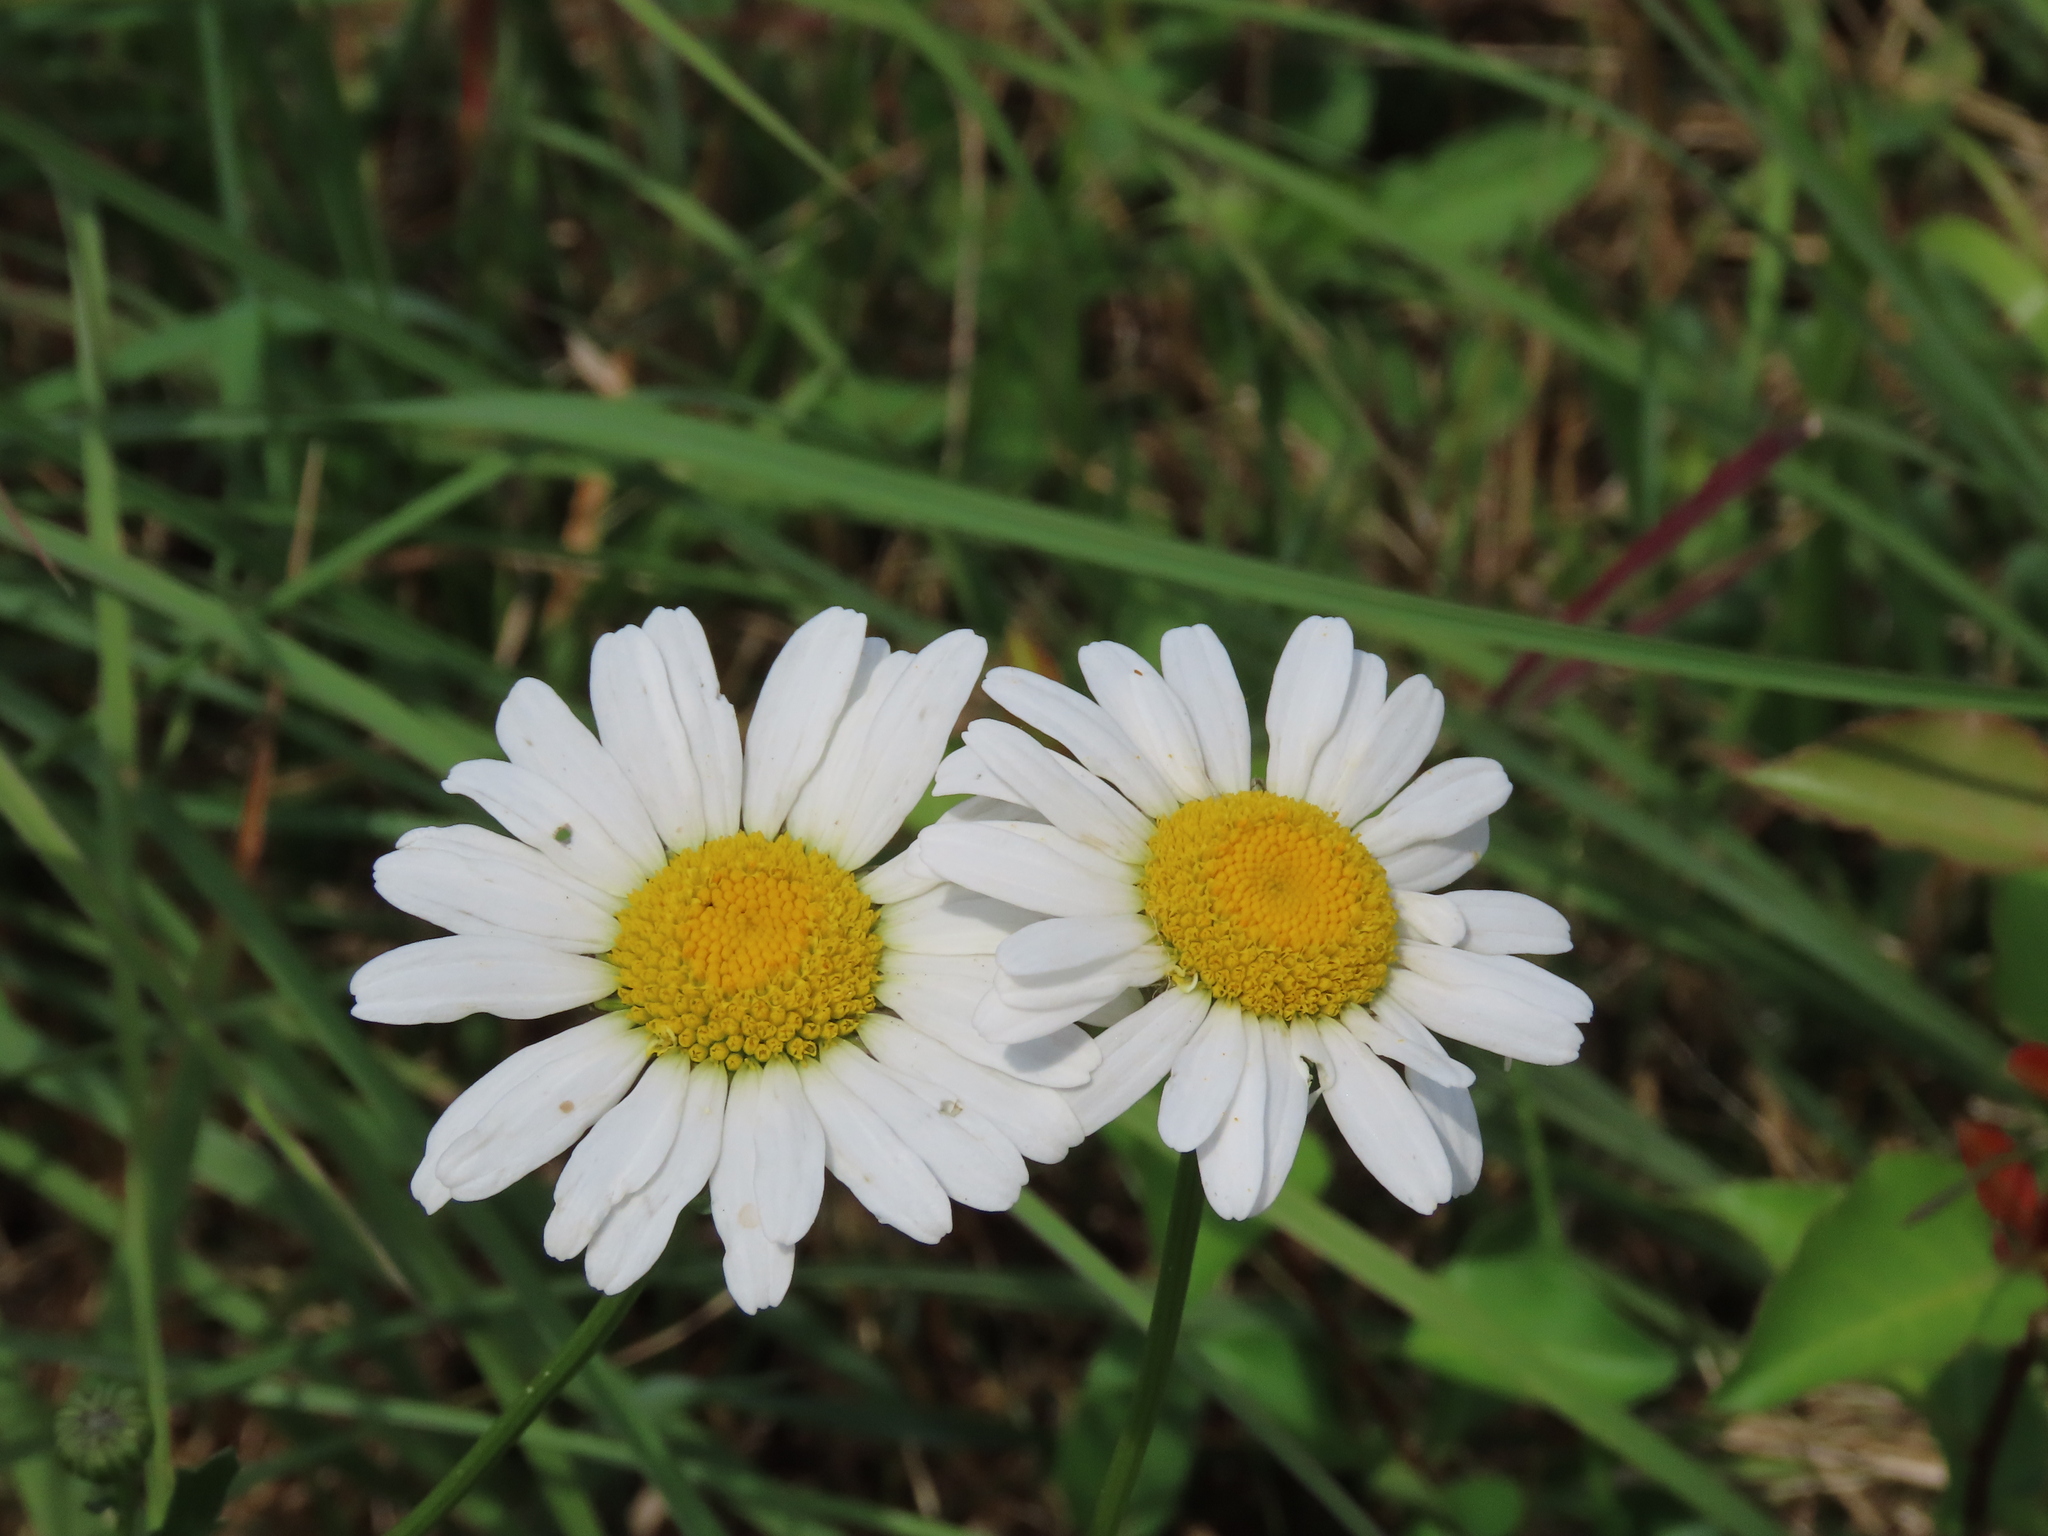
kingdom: Plantae
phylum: Tracheophyta
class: Magnoliopsida
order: Asterales
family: Asteraceae
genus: Leucanthemum
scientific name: Leucanthemum vulgare
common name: Oxeye daisy
